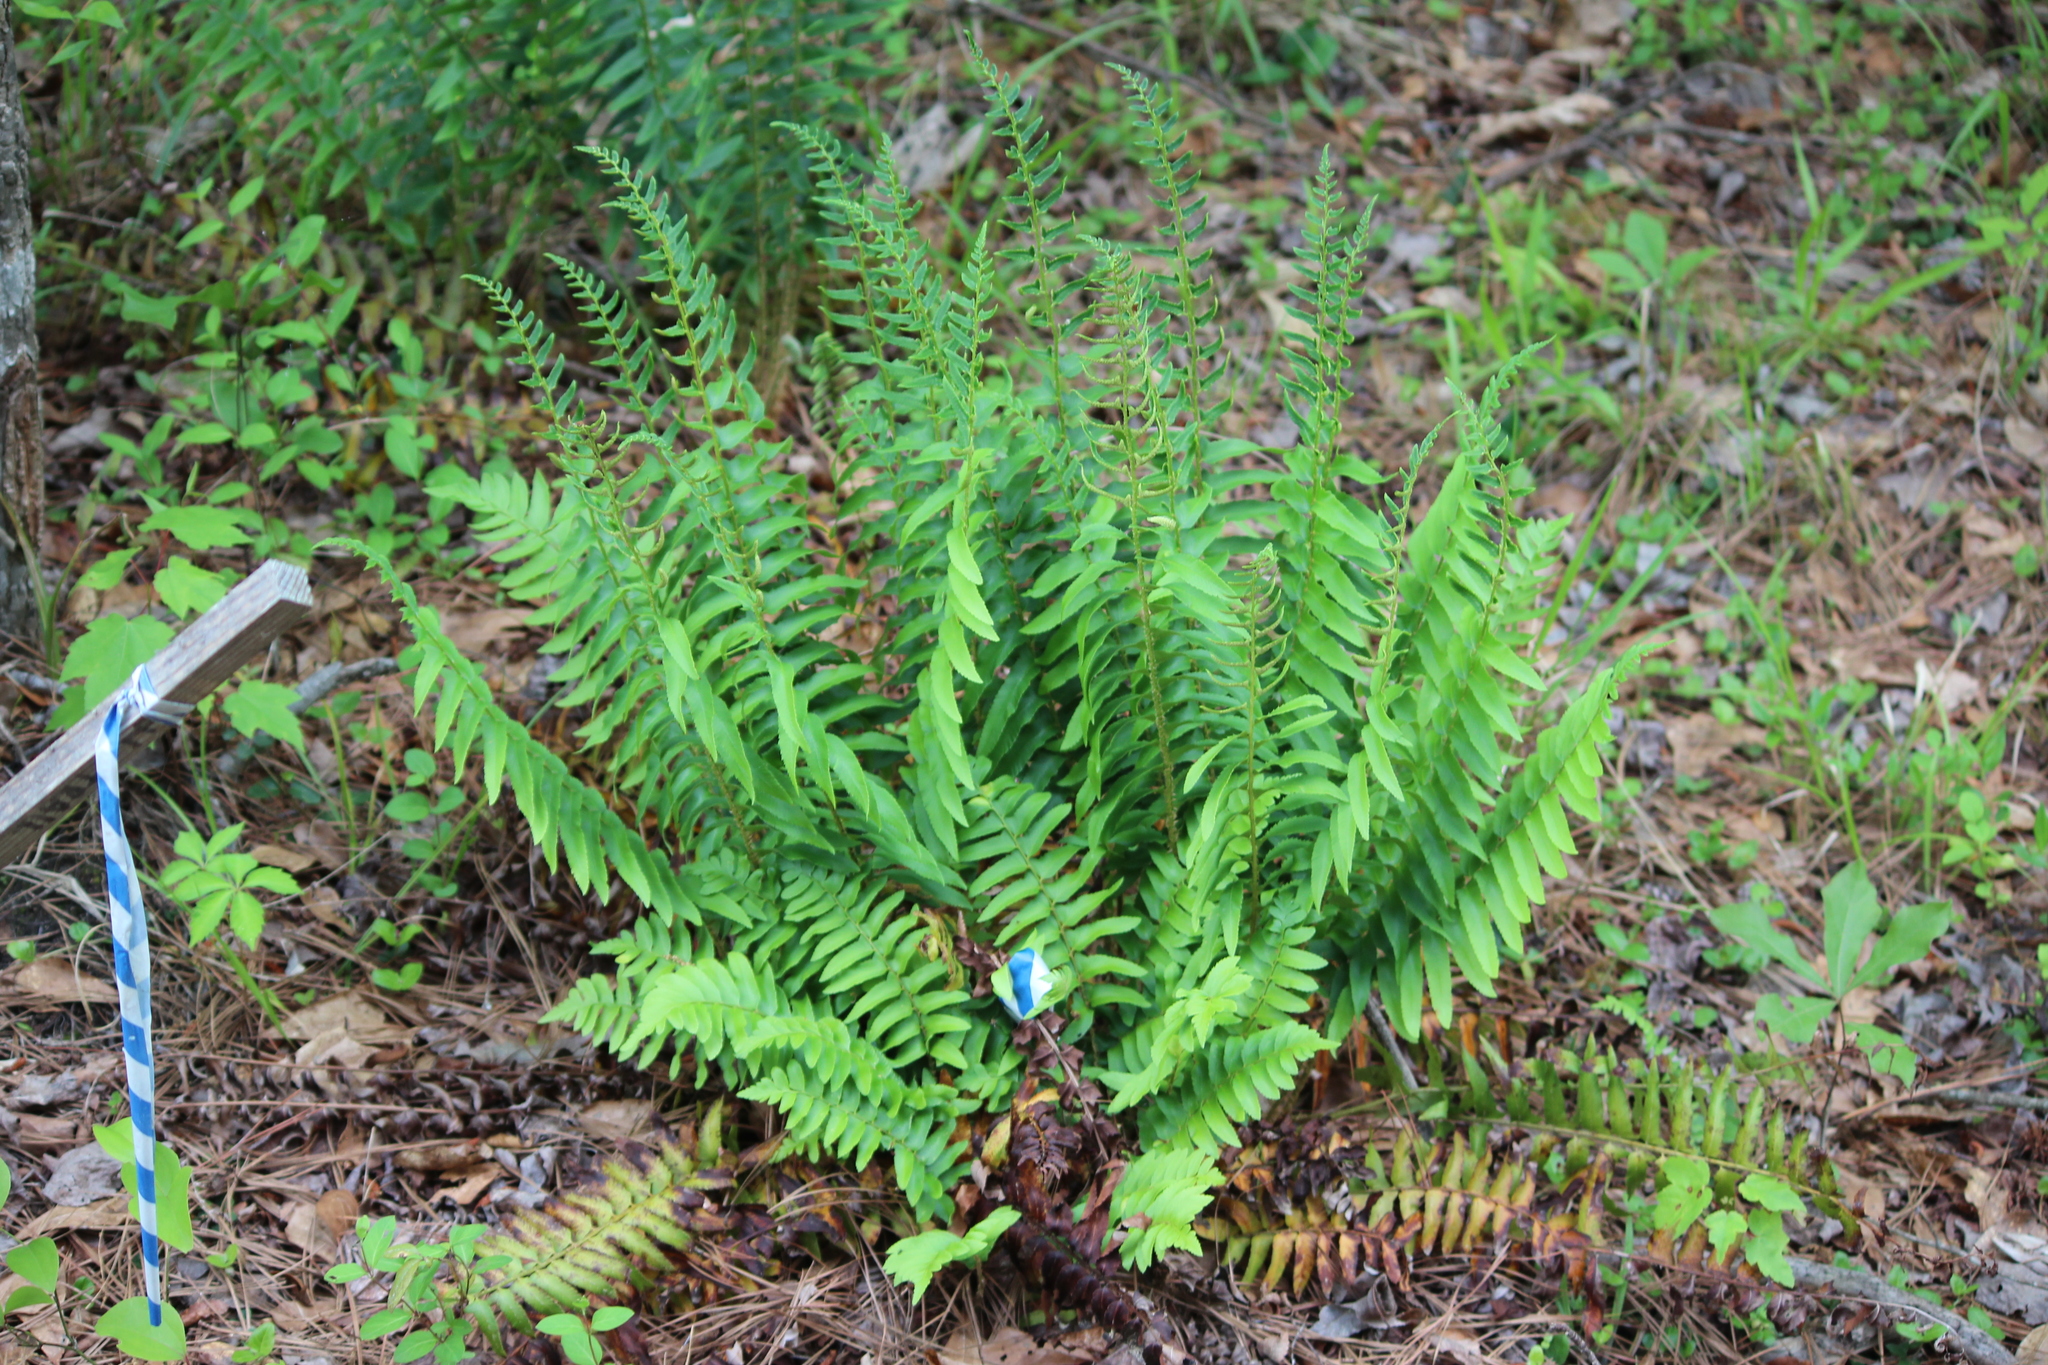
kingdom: Plantae
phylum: Tracheophyta
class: Polypodiopsida
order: Polypodiales
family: Dryopteridaceae
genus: Polystichum
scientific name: Polystichum acrostichoides
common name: Christmas fern
